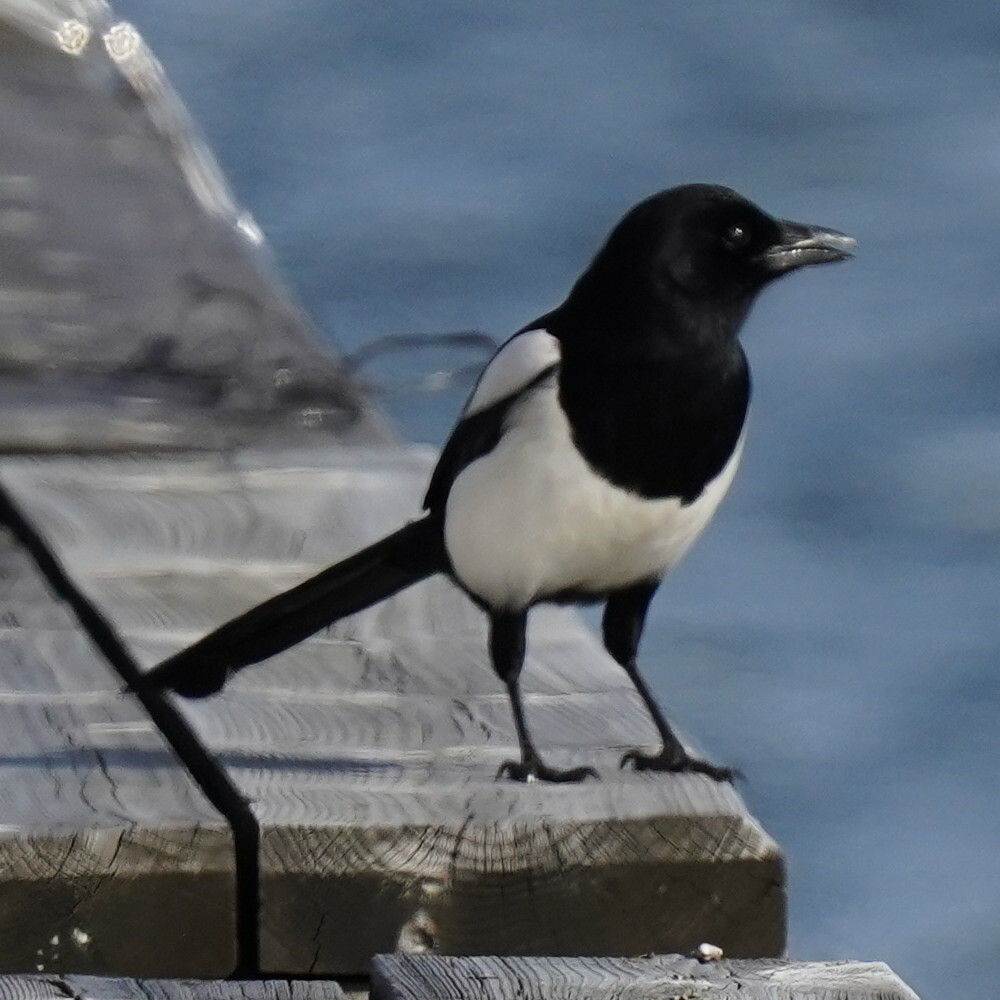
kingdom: Animalia
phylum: Chordata
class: Aves
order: Passeriformes
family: Corvidae
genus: Pica
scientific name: Pica pica
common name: Eurasian magpie
